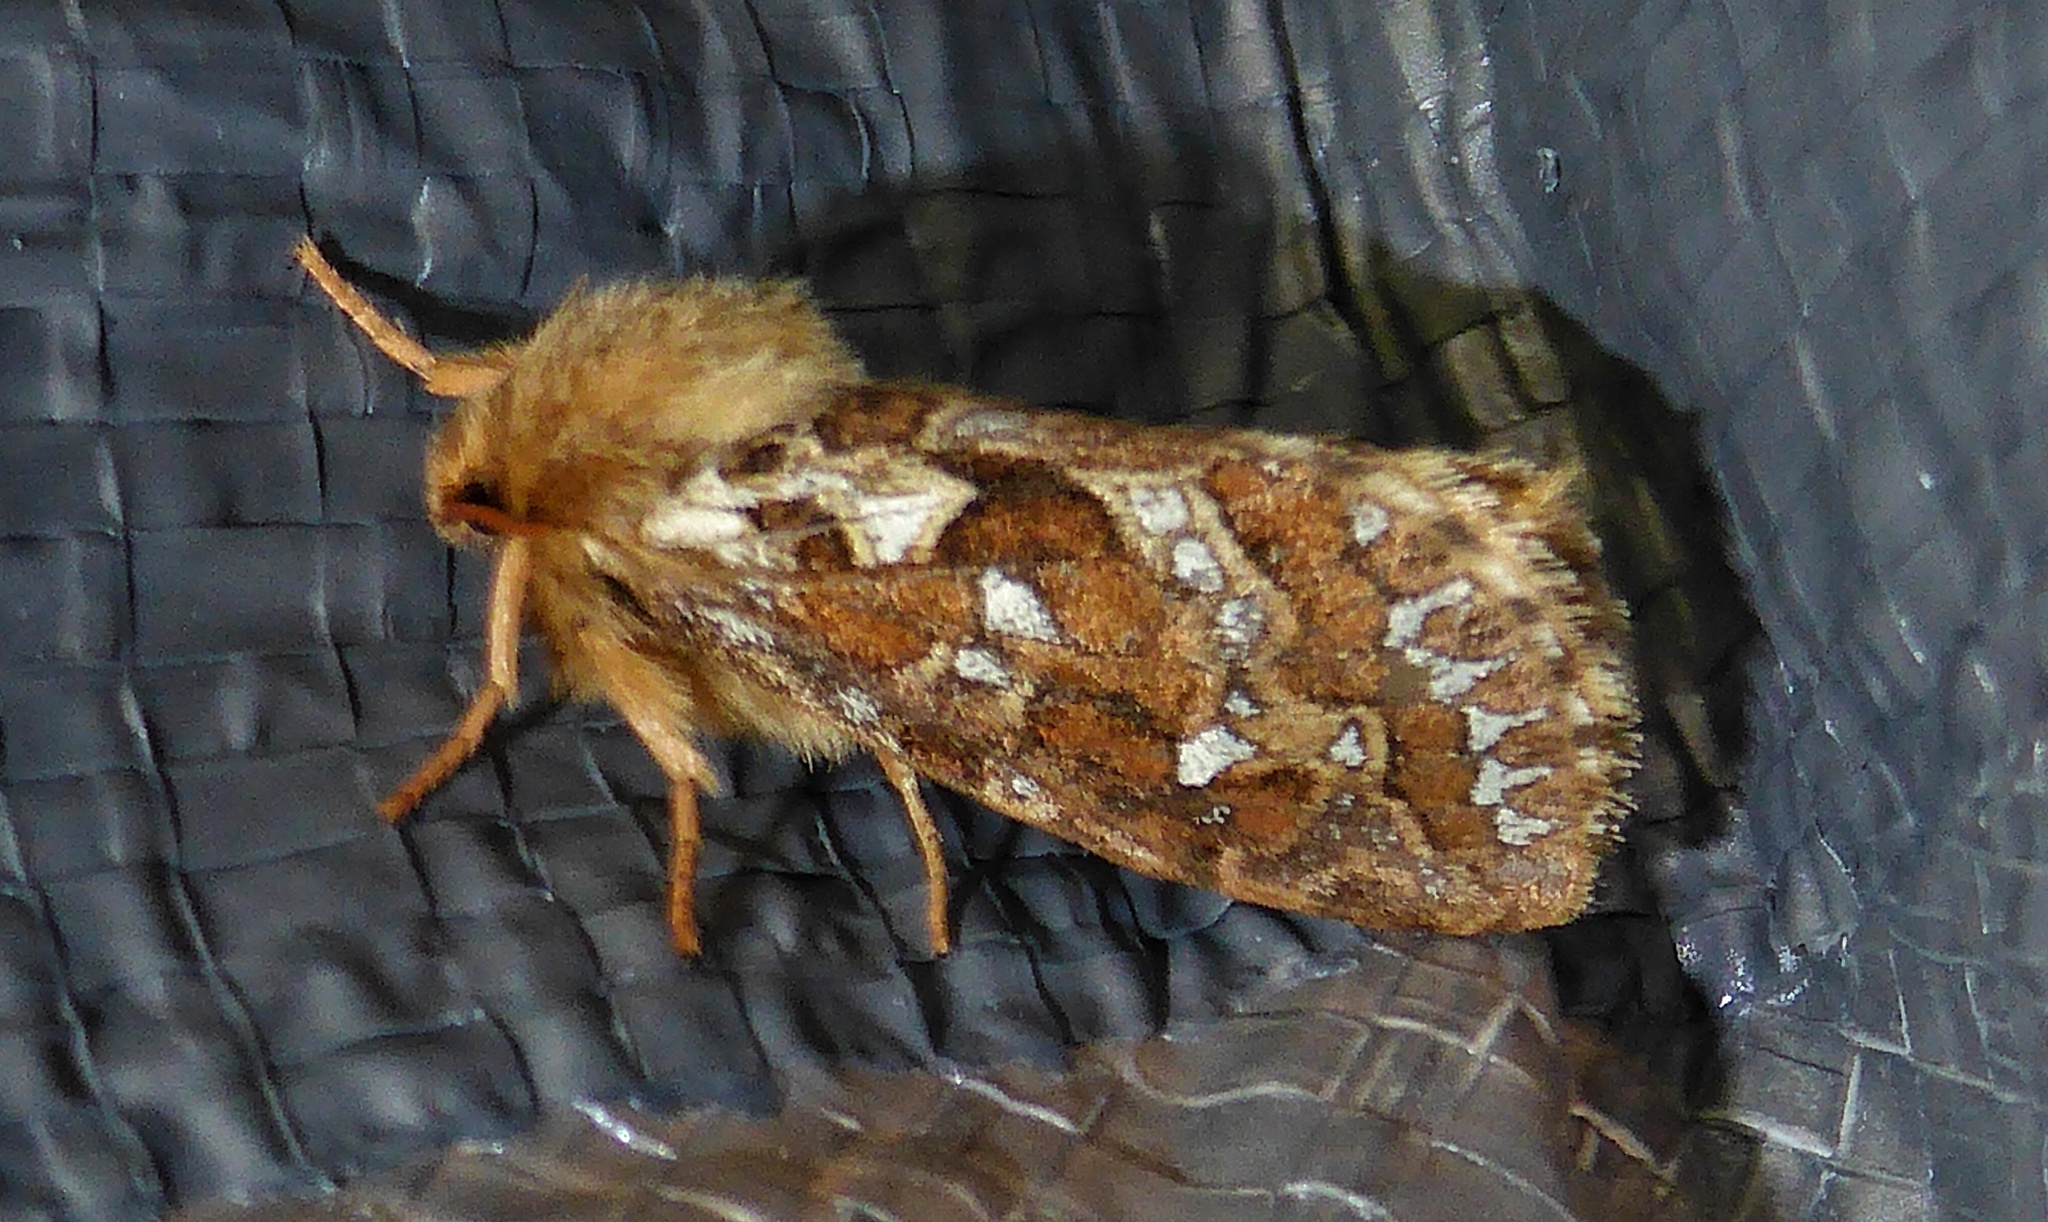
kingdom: Animalia
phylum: Arthropoda
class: Insecta
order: Lepidoptera
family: Hepialidae
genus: Korscheltellus
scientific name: Korscheltellus fusconebulosus
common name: Map-winged swift
